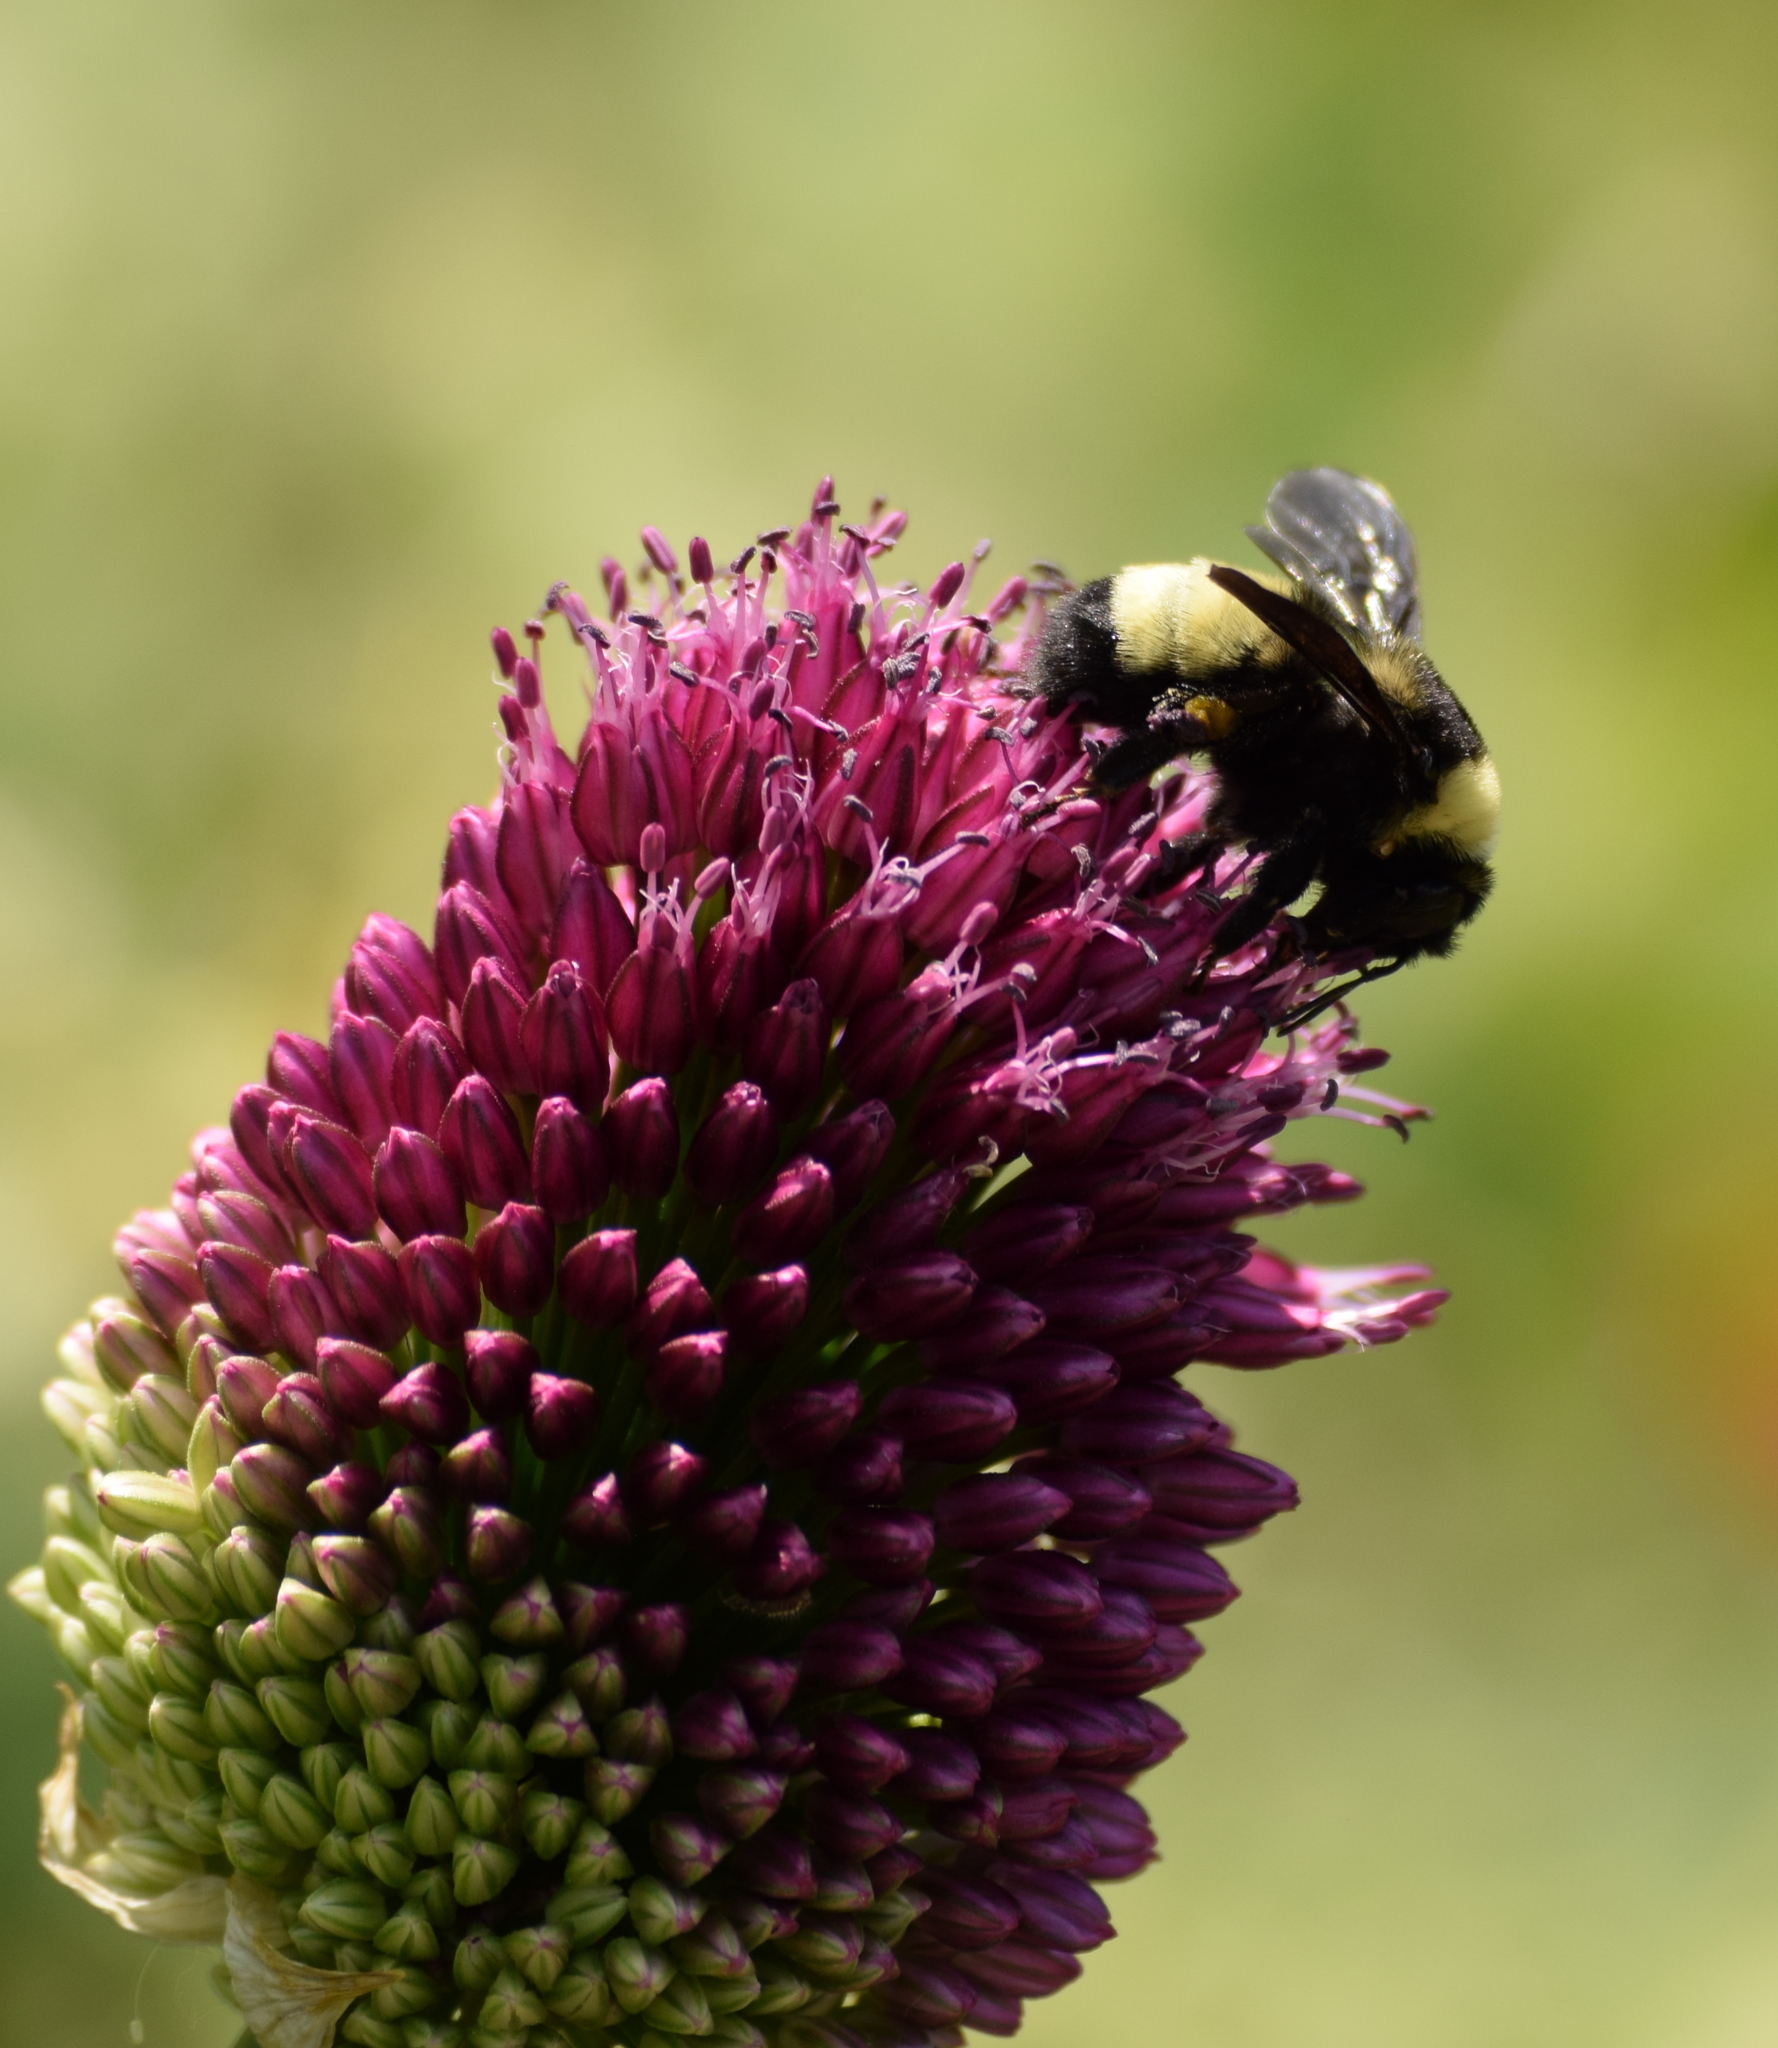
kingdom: Animalia
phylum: Arthropoda
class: Insecta
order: Hymenoptera
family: Apidae
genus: Bombus
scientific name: Bombus auricomus
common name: Black and gold bumble bee
